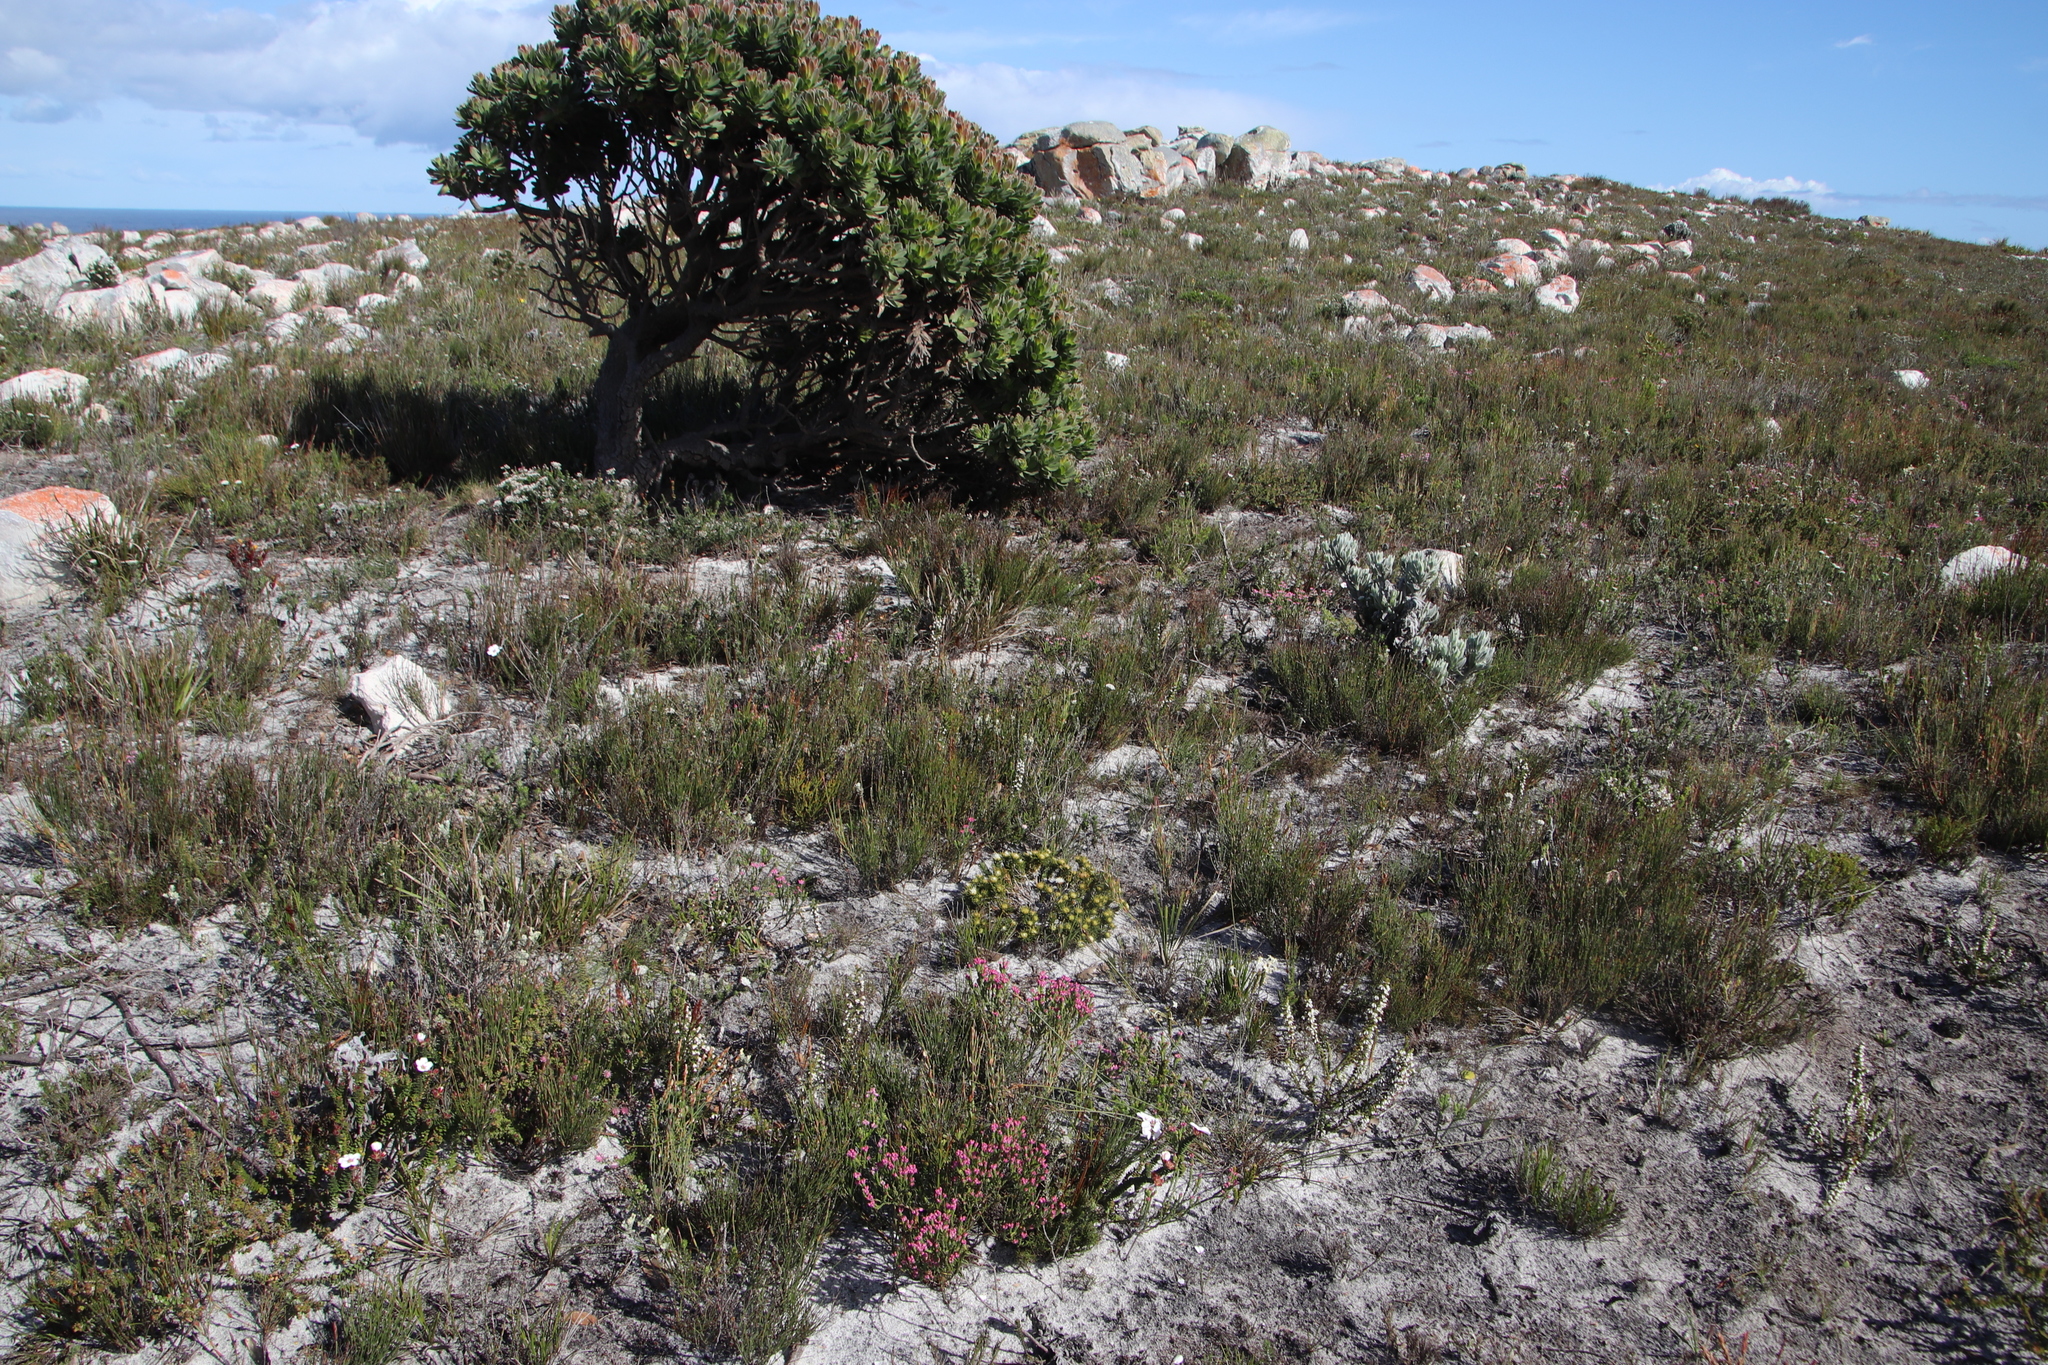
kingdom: Plantae
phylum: Tracheophyta
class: Magnoliopsida
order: Sapindales
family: Rutaceae
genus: Agathosma
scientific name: Agathosma hookeri
